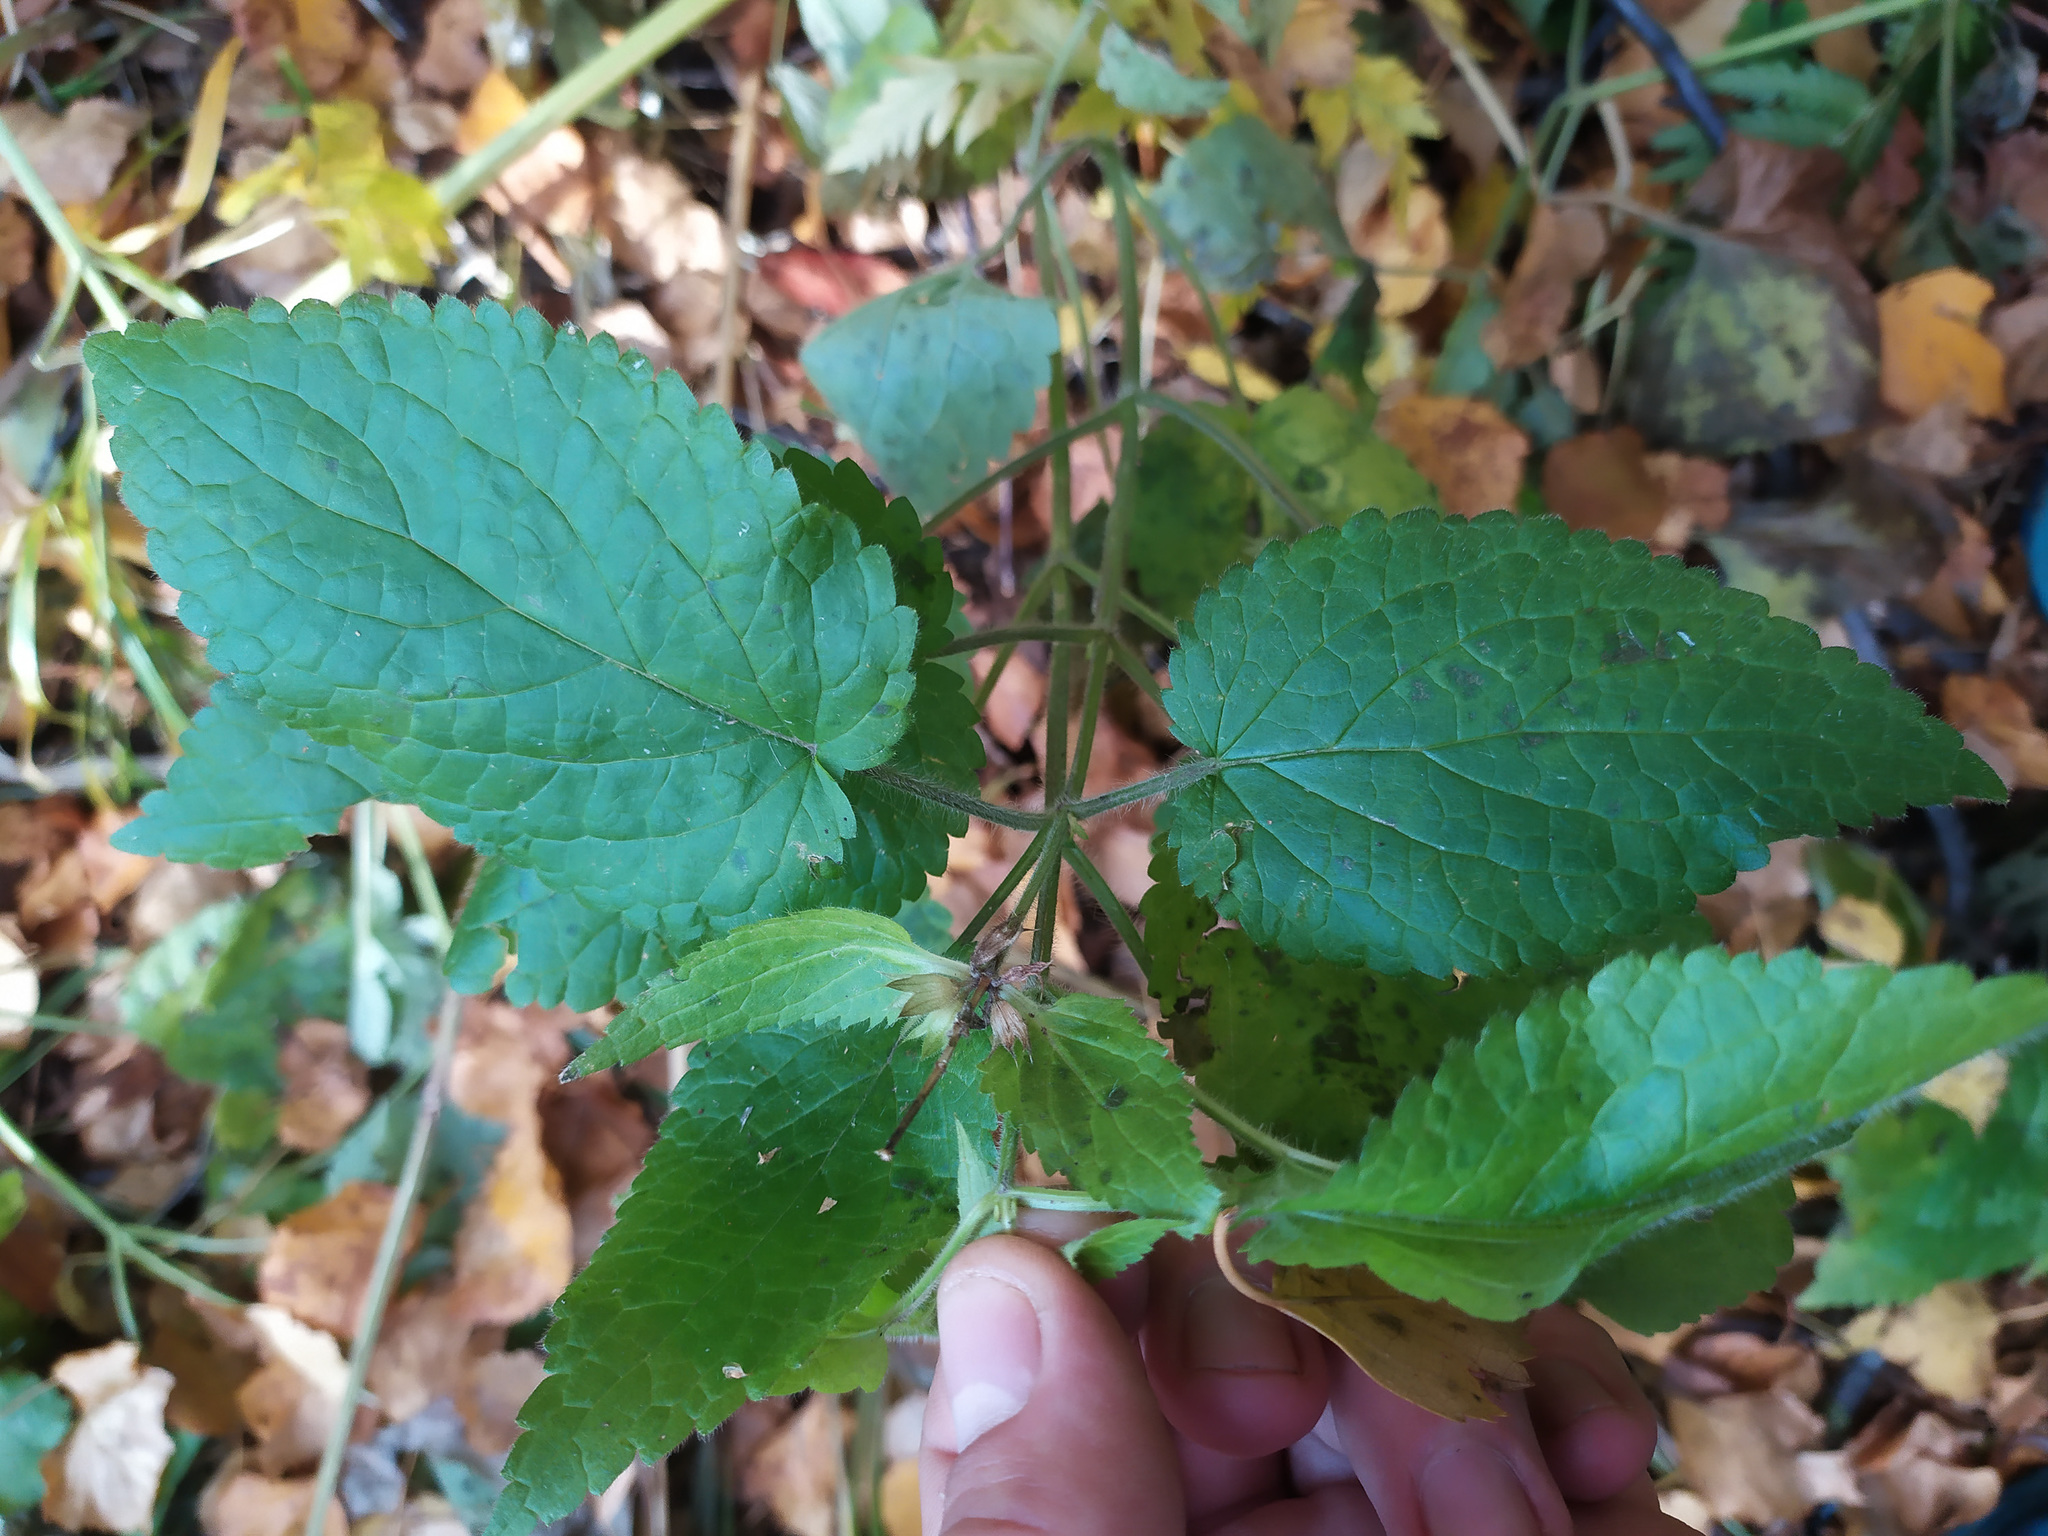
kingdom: Plantae
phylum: Tracheophyta
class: Magnoliopsida
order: Lamiales
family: Lamiaceae
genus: Stachys
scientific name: Stachys sylvatica
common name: Hedge woundwort
